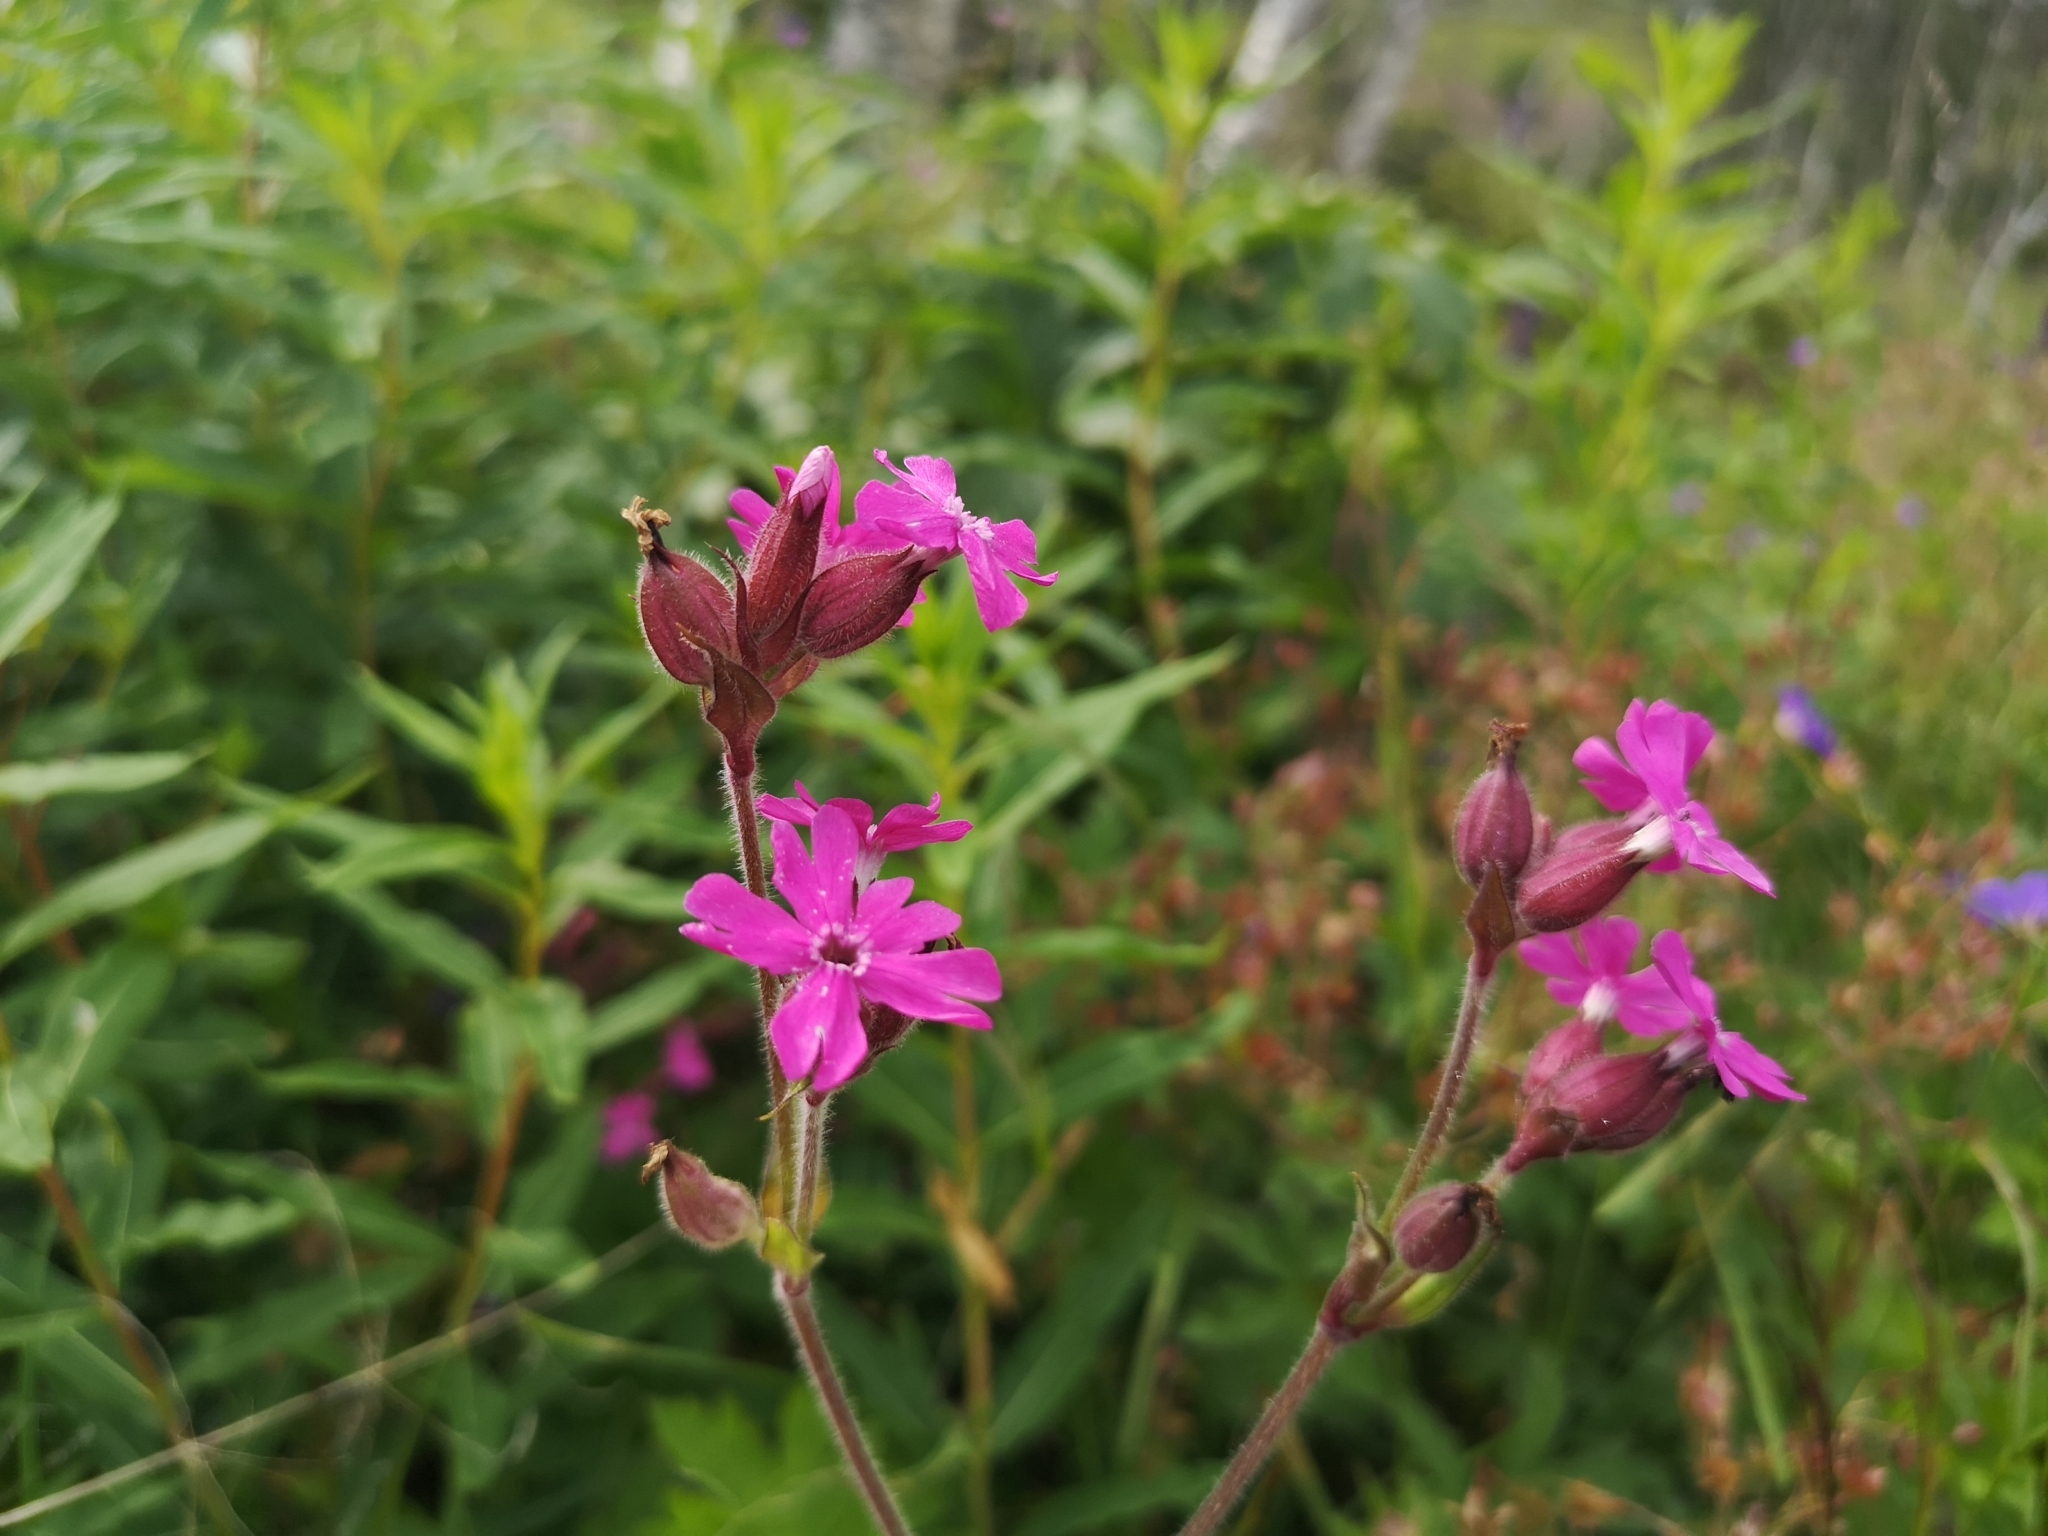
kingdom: Plantae
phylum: Tracheophyta
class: Magnoliopsida
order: Caryophyllales
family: Caryophyllaceae
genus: Silene
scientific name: Silene dioica
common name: Red campion
